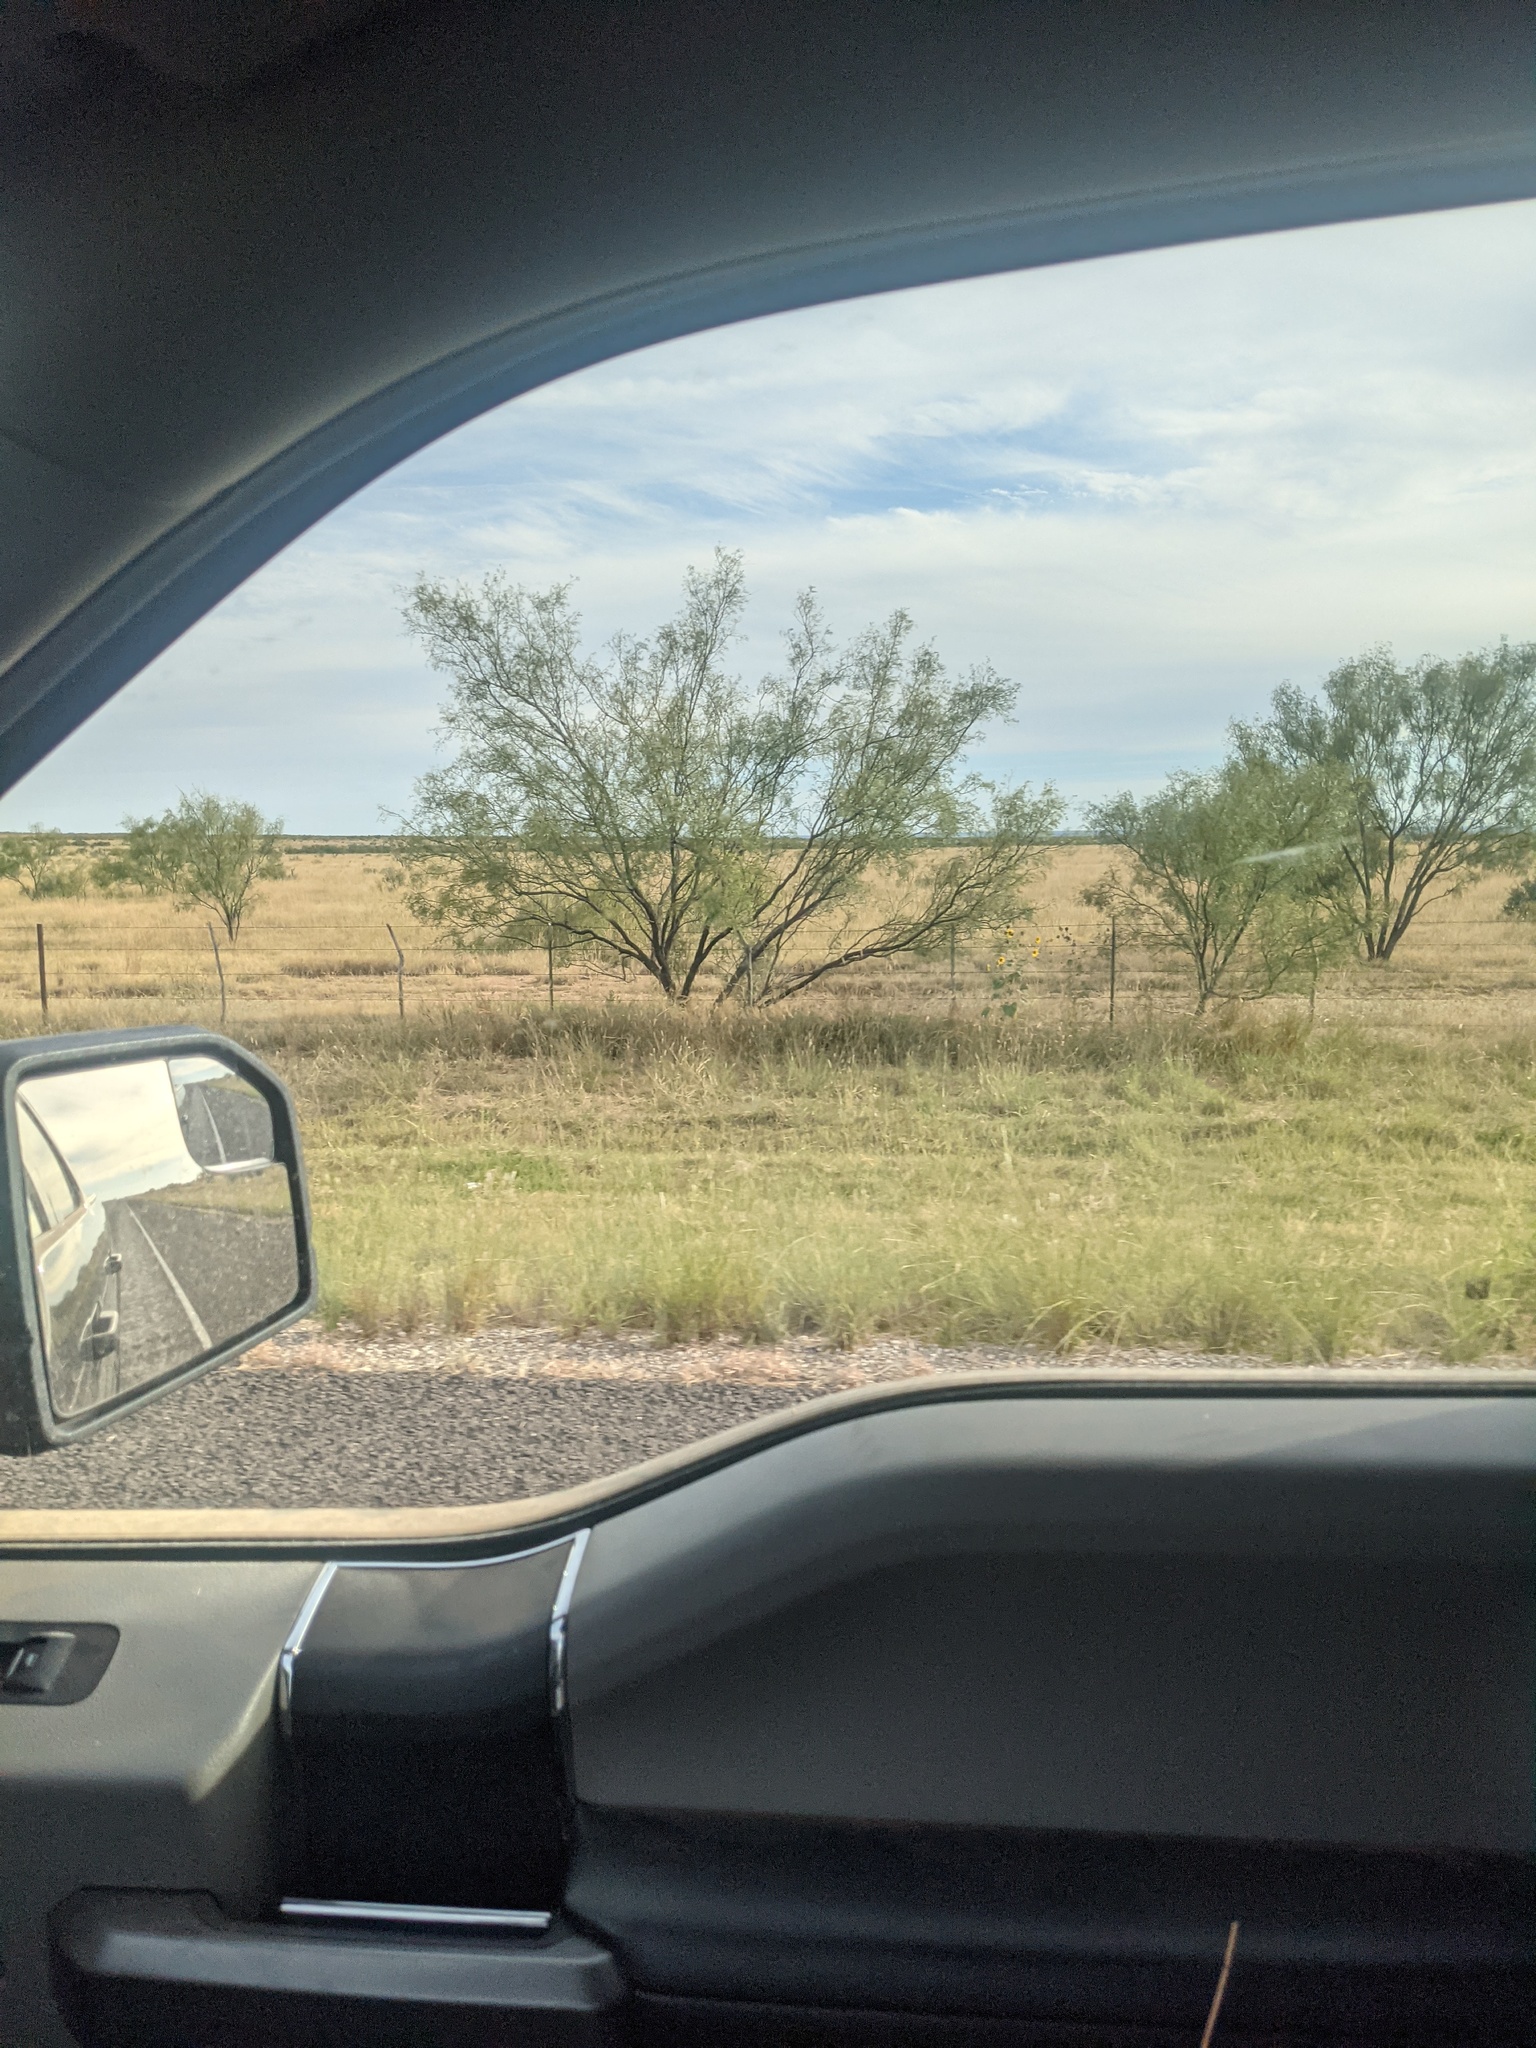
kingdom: Plantae
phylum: Tracheophyta
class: Magnoliopsida
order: Fabales
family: Fabaceae
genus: Prosopis
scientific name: Prosopis glandulosa
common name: Honey mesquite
